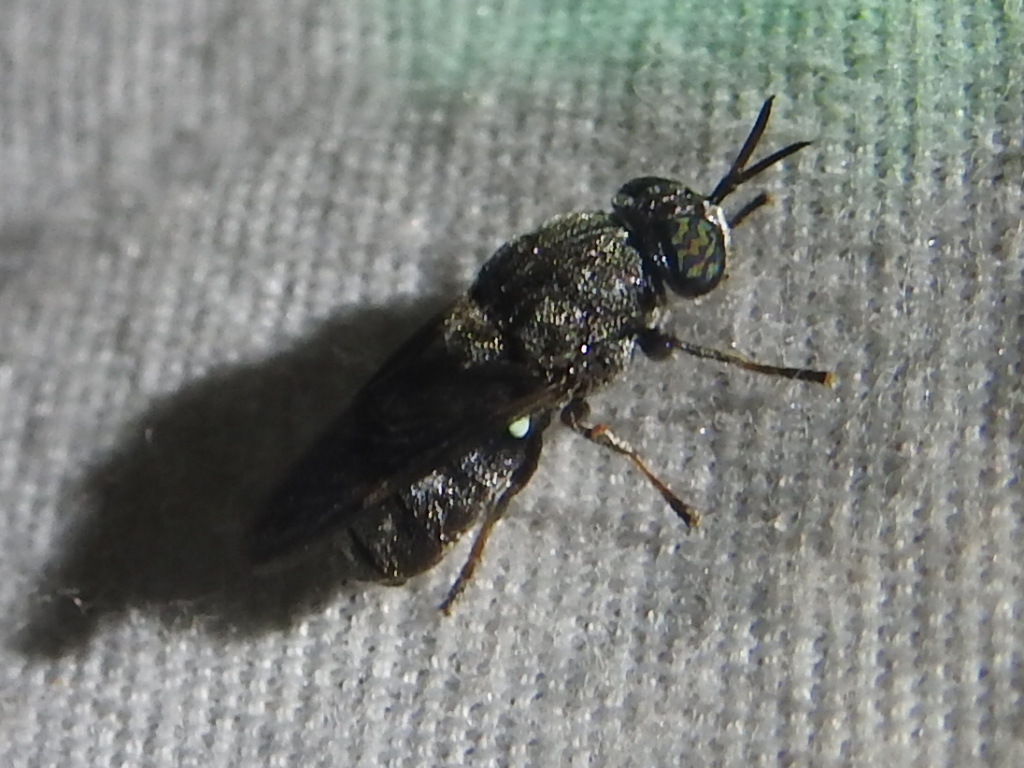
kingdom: Animalia
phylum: Arthropoda
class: Insecta
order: Diptera
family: Stratiomyidae
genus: Dicyphoma
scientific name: Dicyphoma schaefferi
